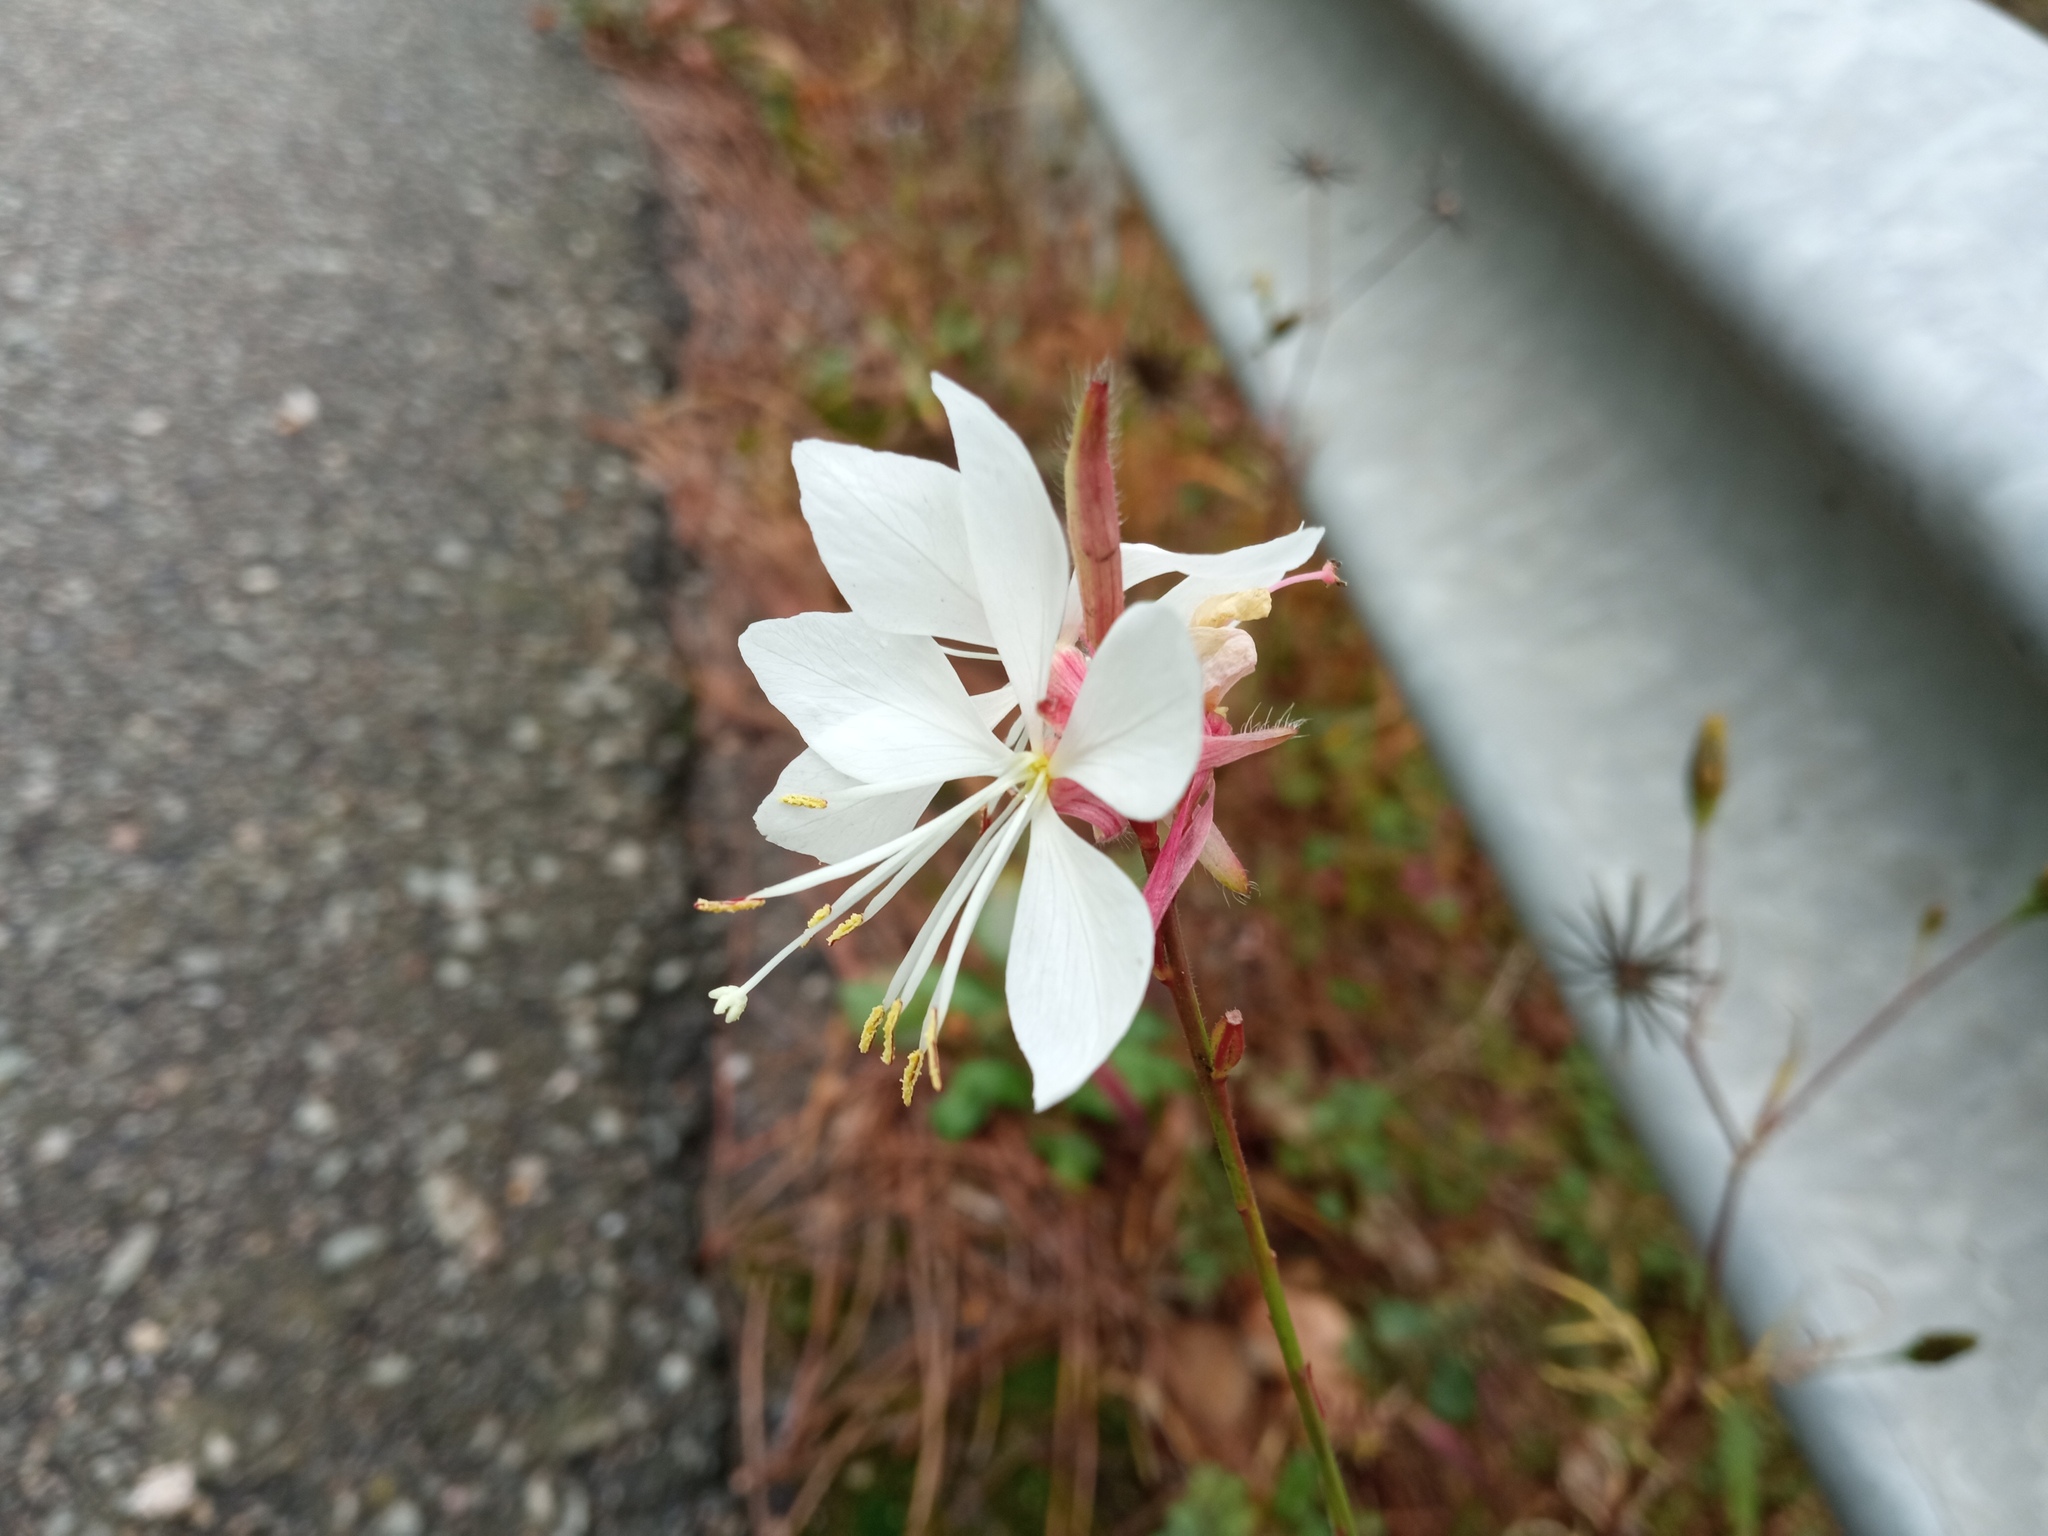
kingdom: Plantae
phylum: Tracheophyta
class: Magnoliopsida
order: Myrtales
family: Onagraceae
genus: Oenothera
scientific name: Oenothera lindheimeri
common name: Lindheimer's beeblossom
